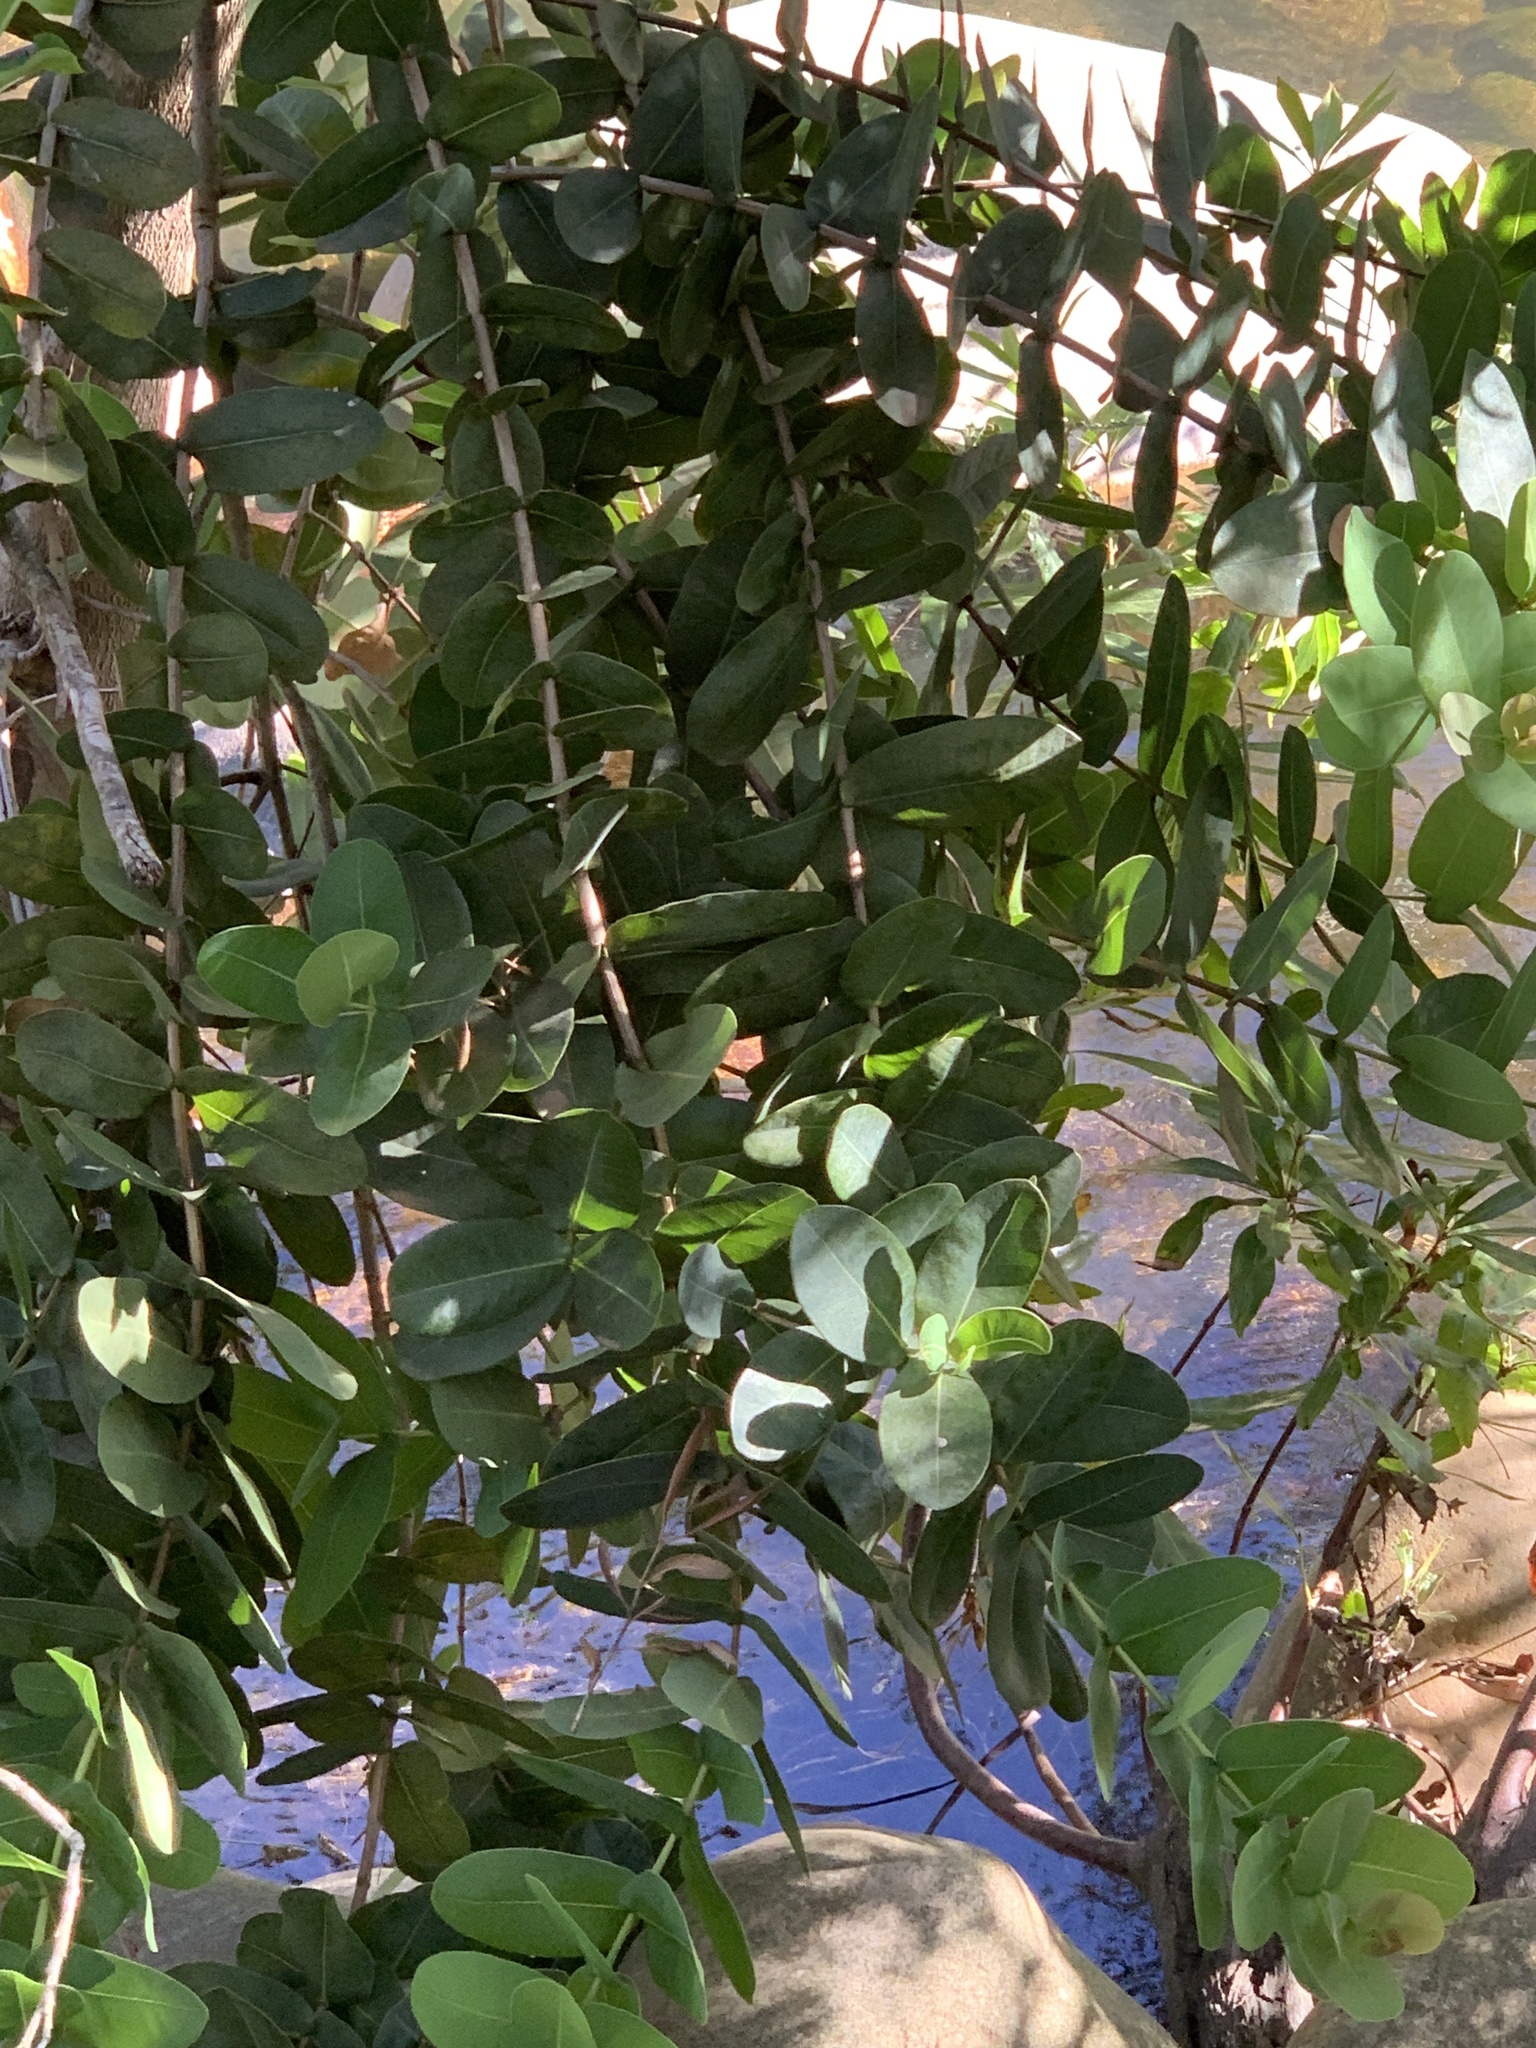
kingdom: Plantae
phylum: Tracheophyta
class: Magnoliopsida
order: Myrtales
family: Myrtaceae
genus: Syzygium
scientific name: Syzygium cordatum
